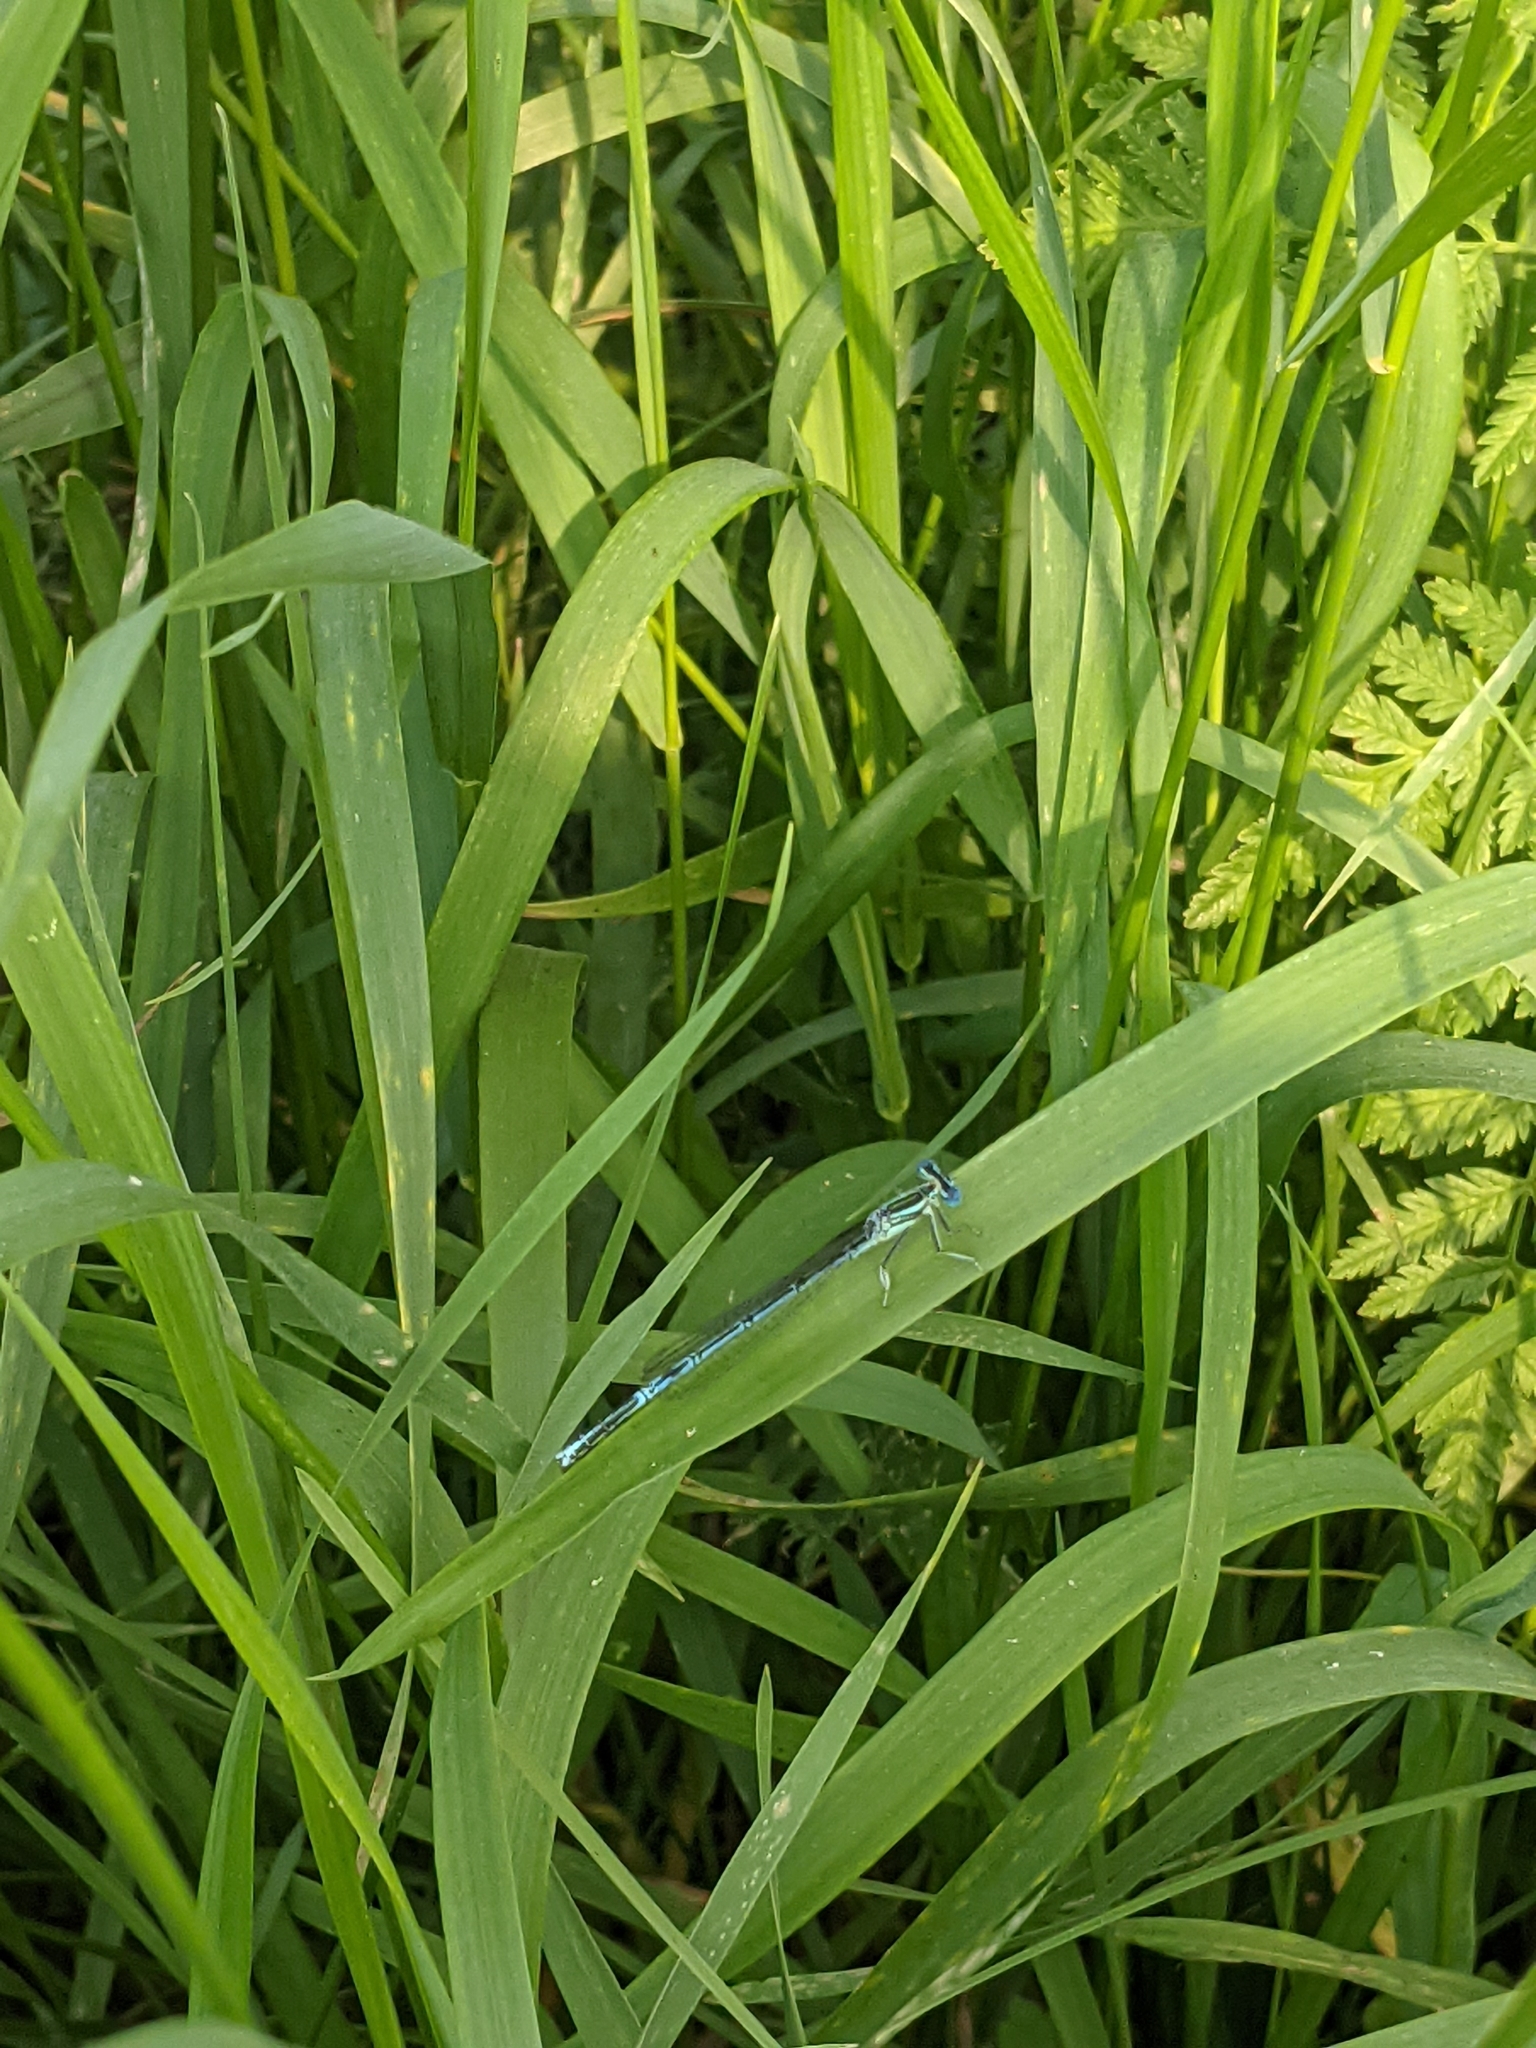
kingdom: Animalia
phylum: Arthropoda
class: Insecta
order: Odonata
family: Platycnemididae
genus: Platycnemis
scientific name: Platycnemis pennipes
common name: White-legged damselfly
